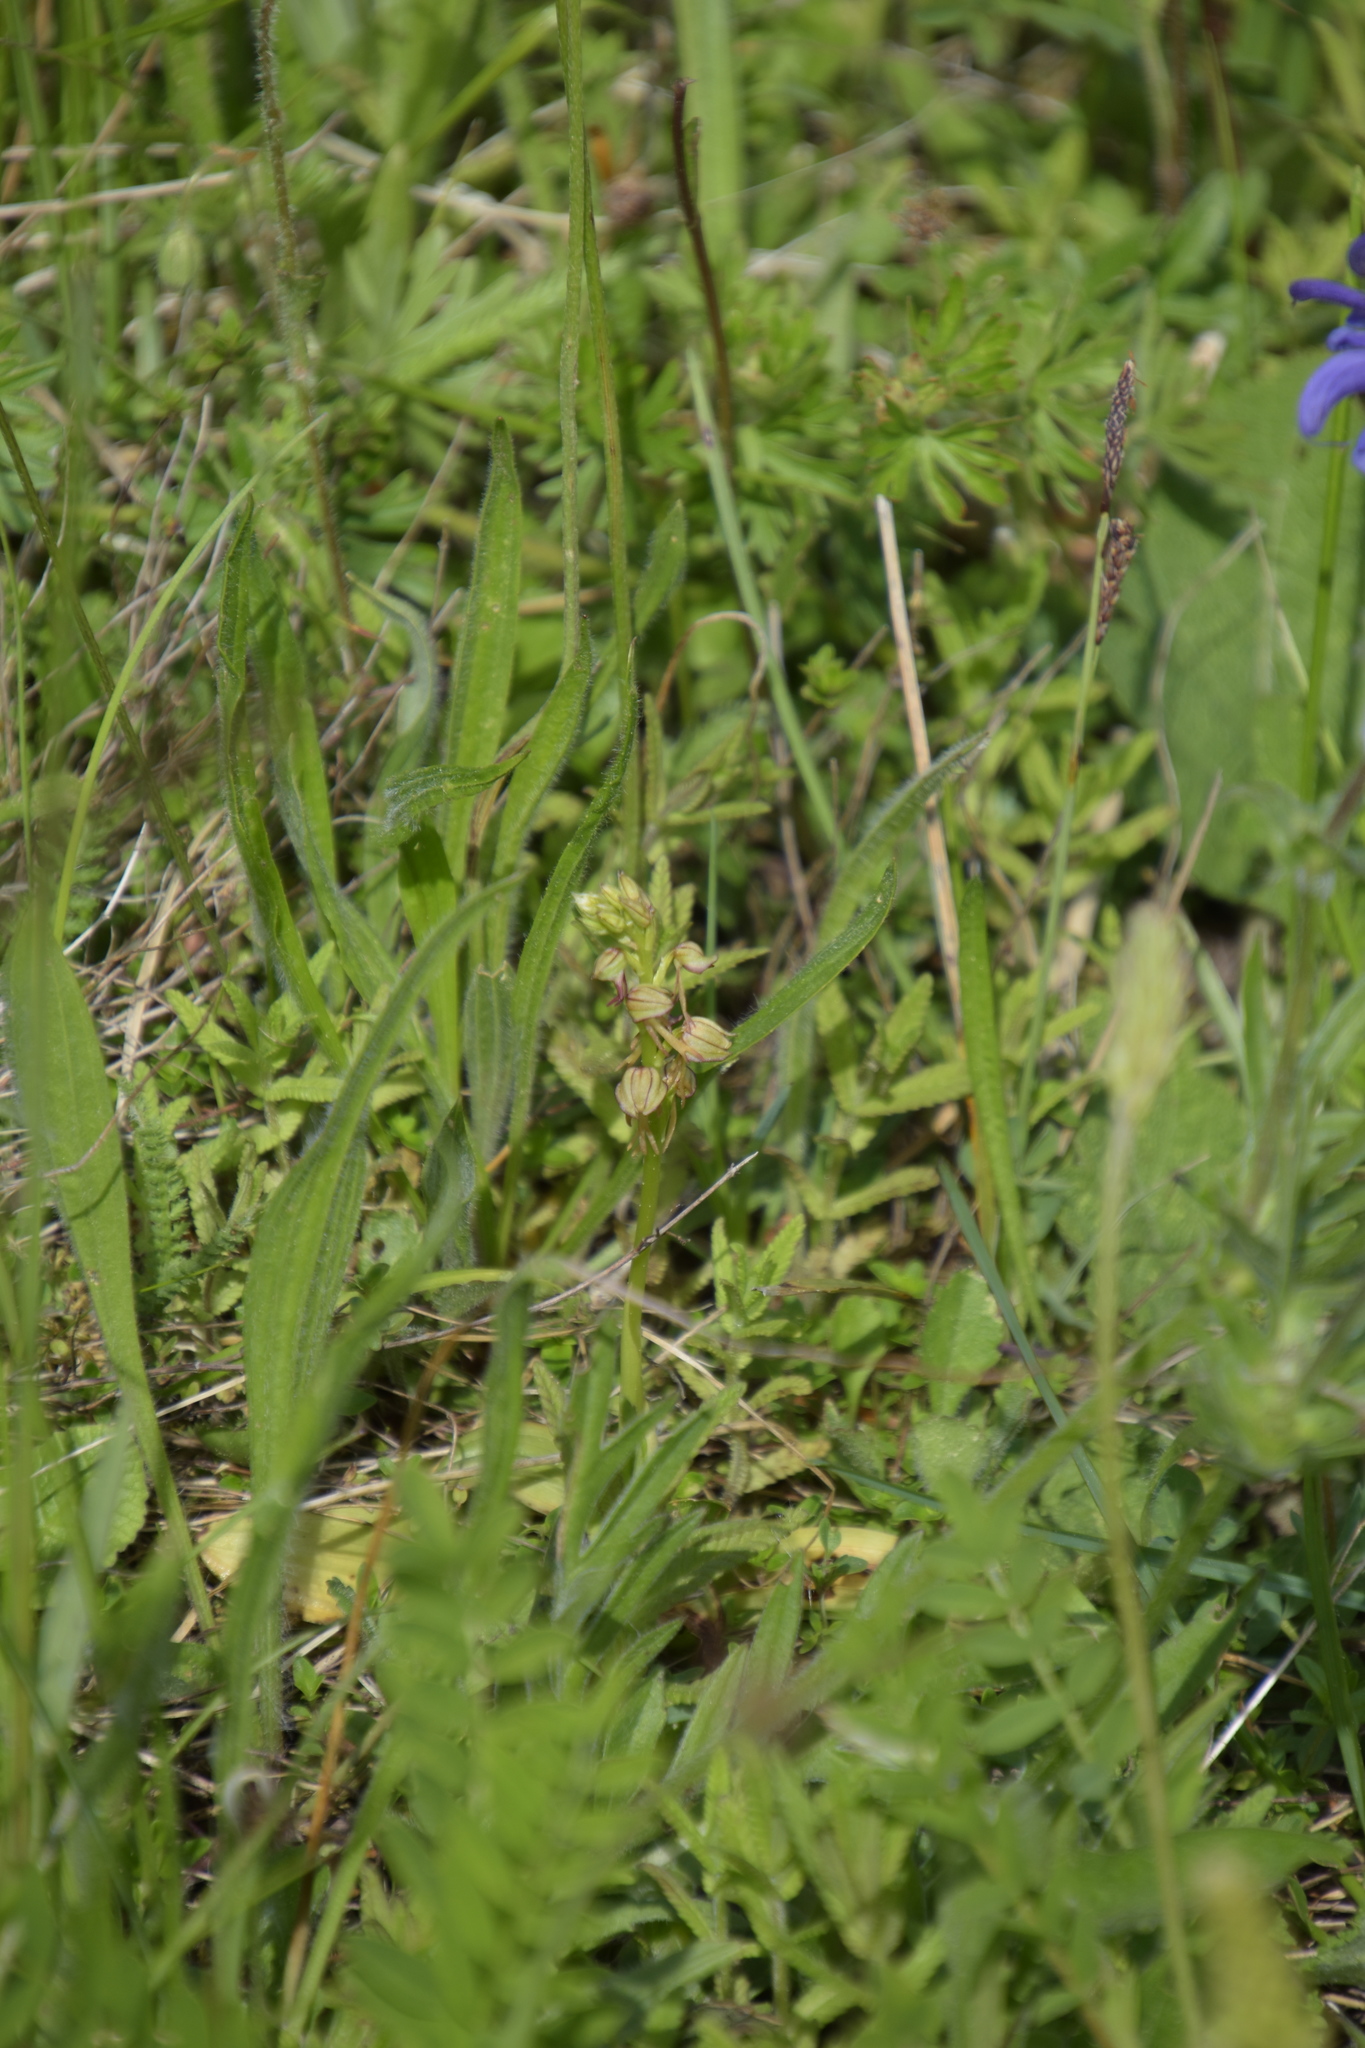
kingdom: Plantae
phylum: Tracheophyta
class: Liliopsida
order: Asparagales
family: Orchidaceae
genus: Orchis
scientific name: Orchis anthropophora
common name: Man orchid
